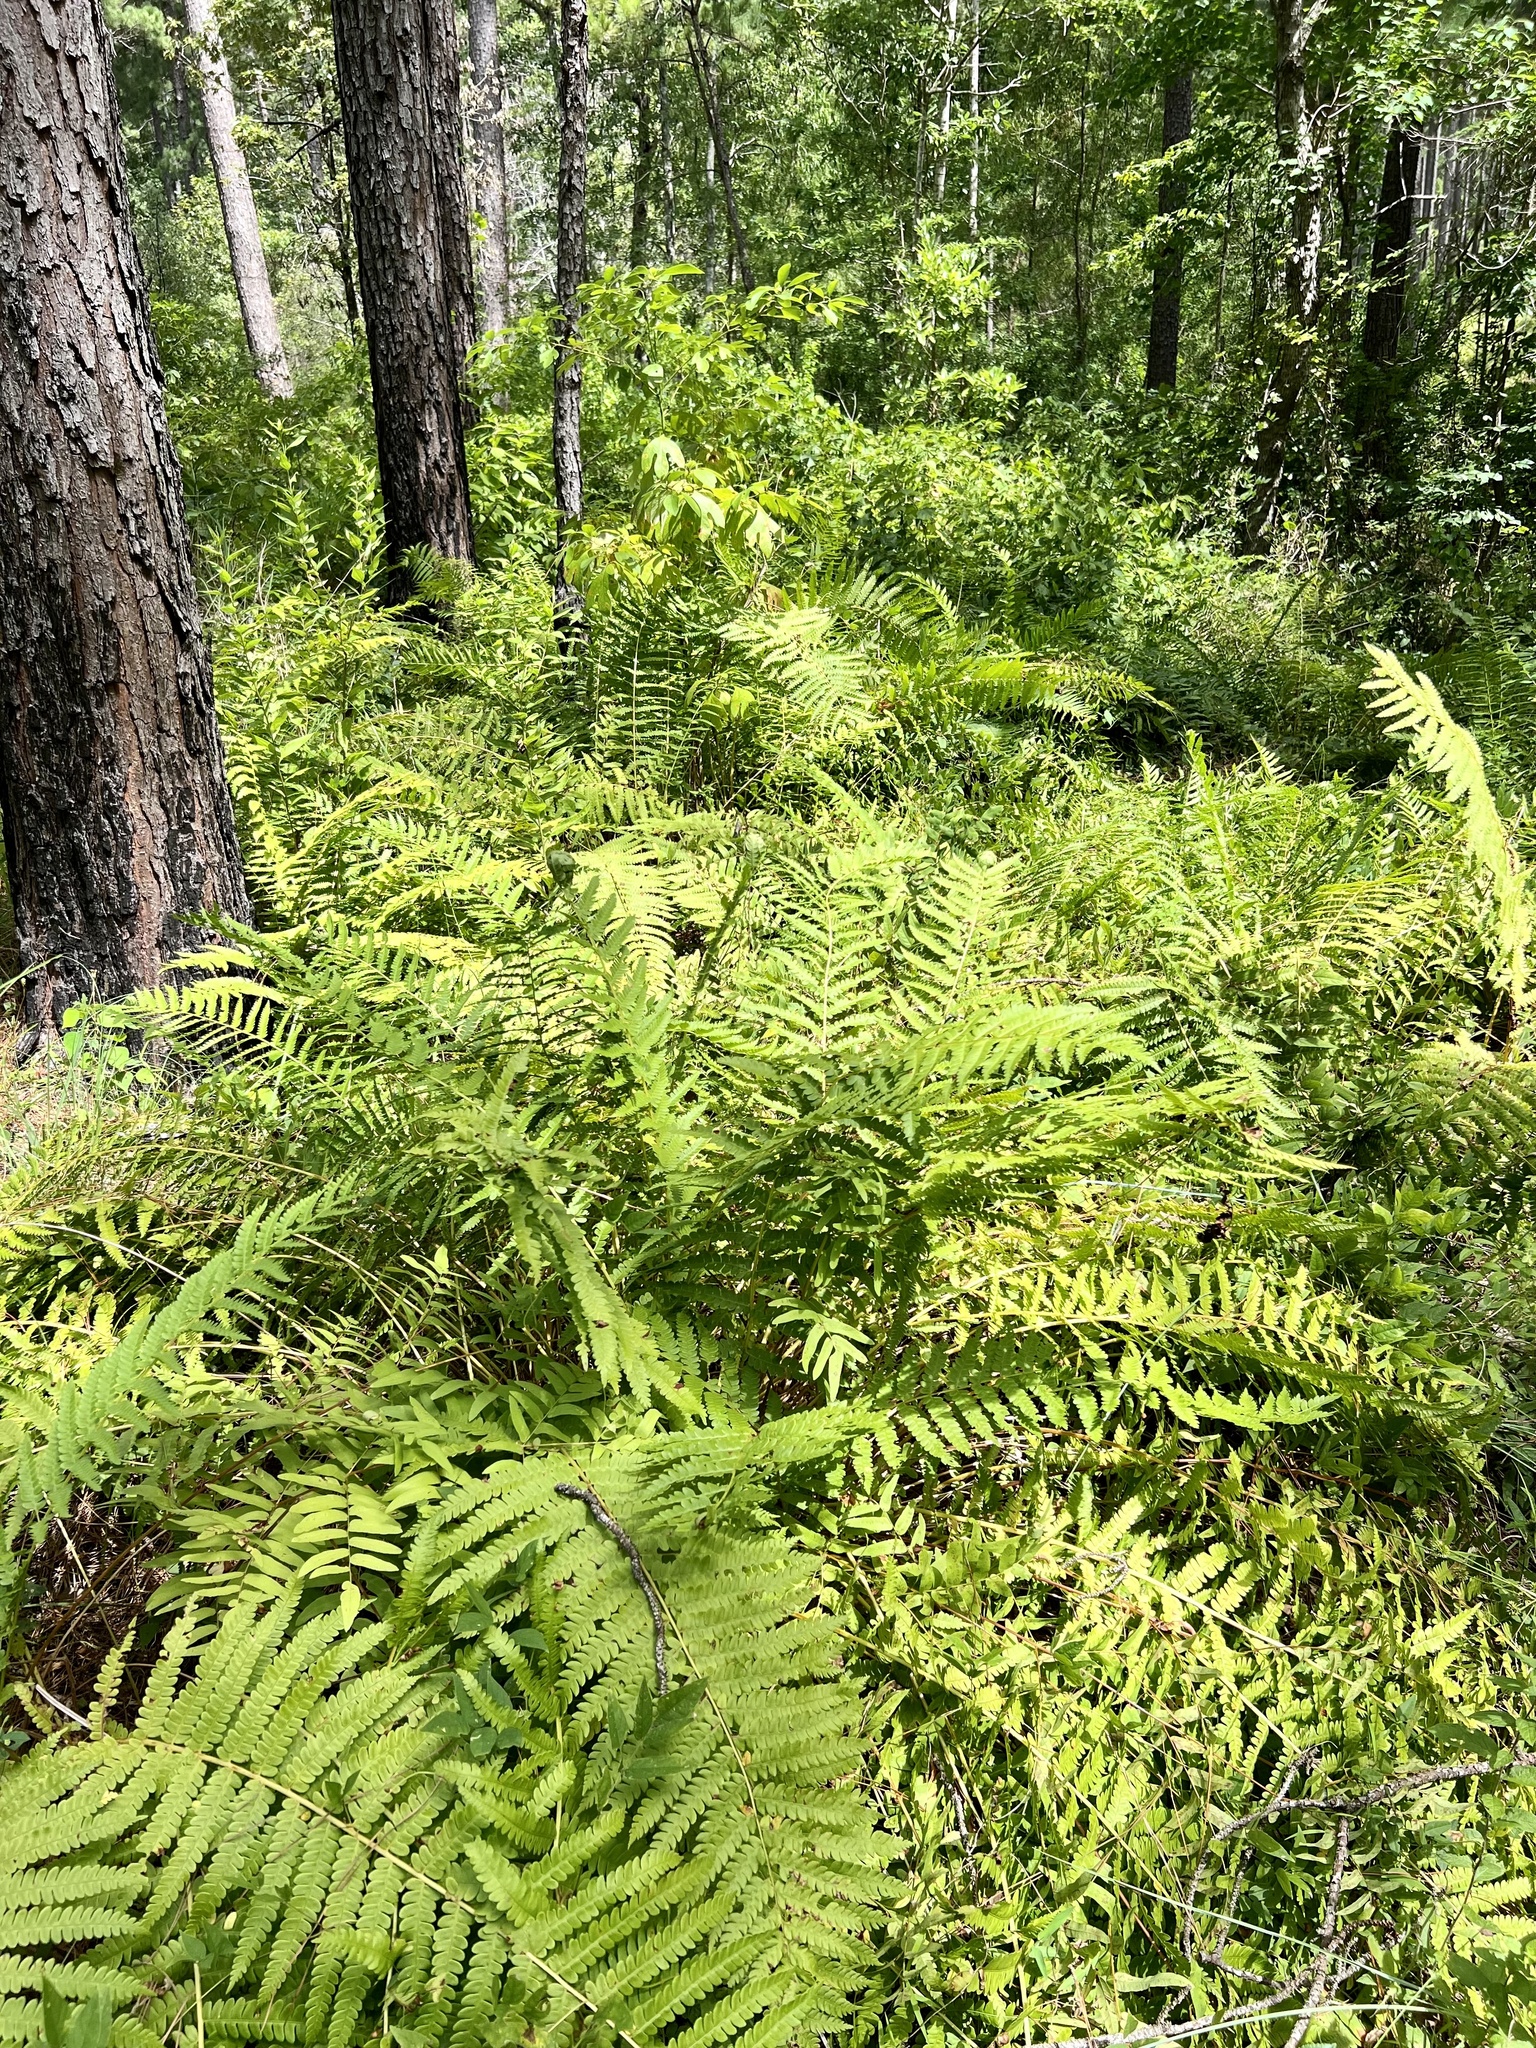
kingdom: Plantae
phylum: Tracheophyta
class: Polypodiopsida
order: Osmundales
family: Osmundaceae
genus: Osmundastrum
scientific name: Osmundastrum cinnamomeum
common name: Cinnamon fern
